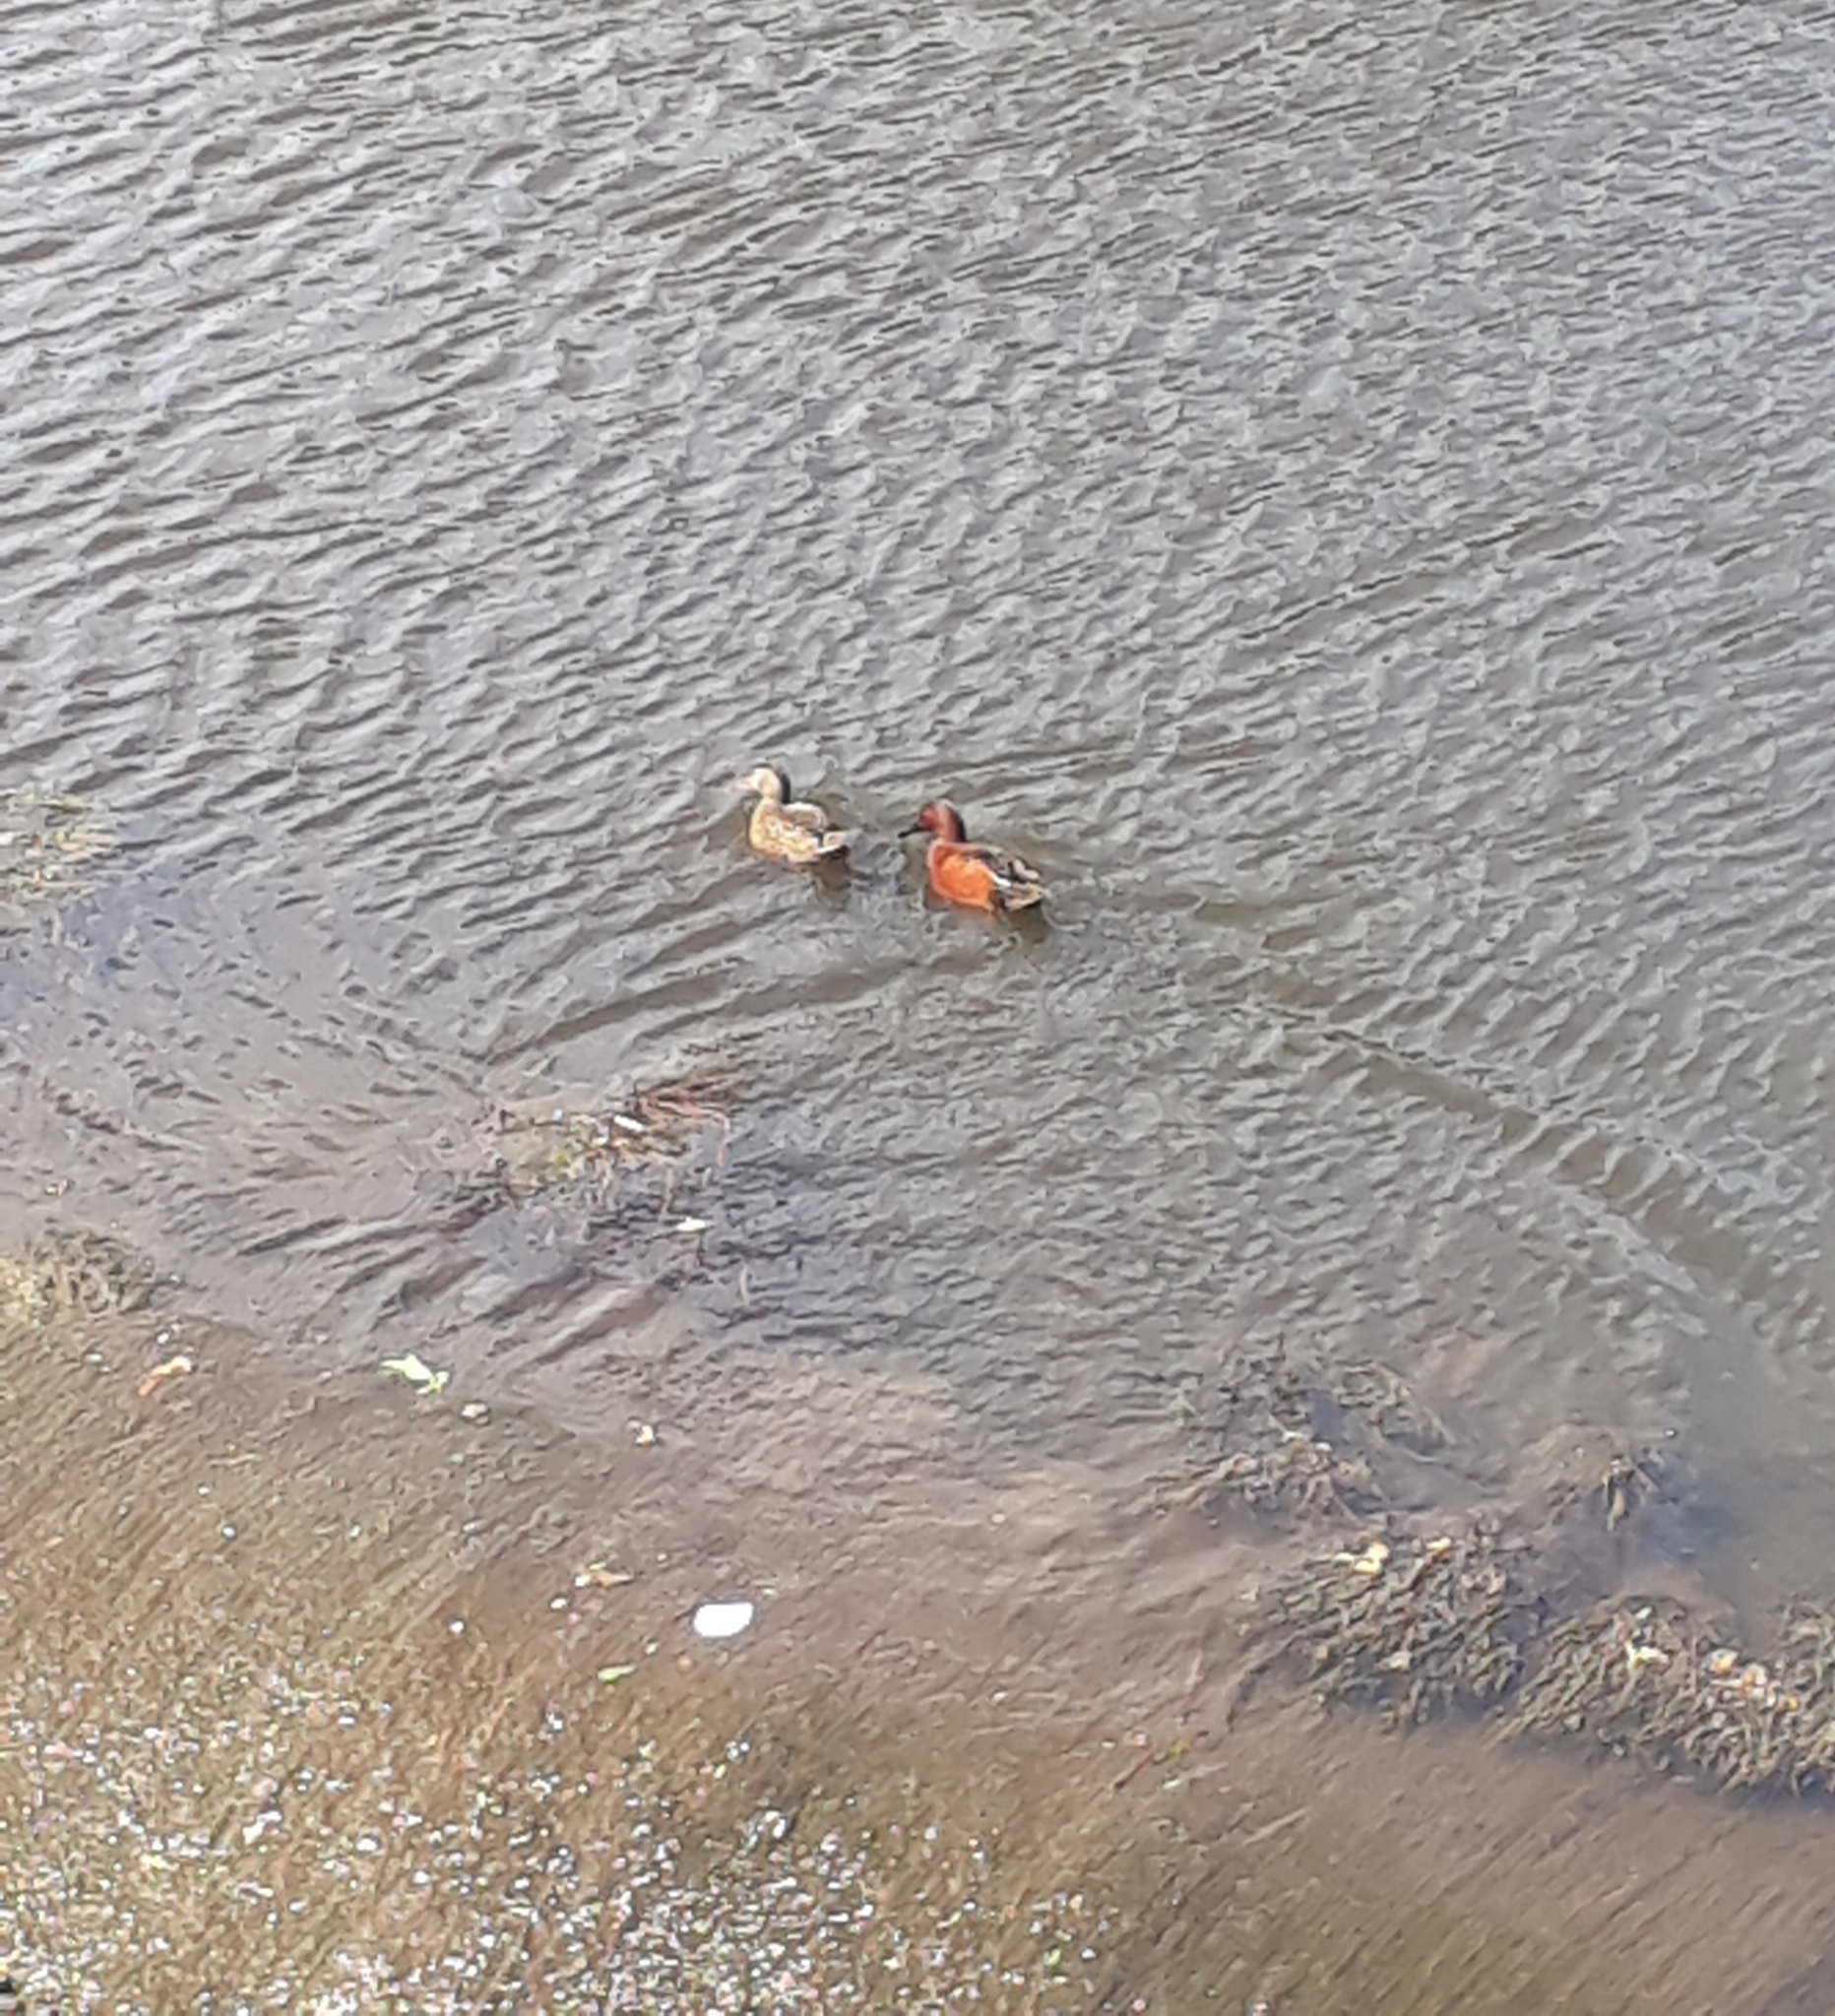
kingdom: Animalia
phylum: Chordata
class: Aves
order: Anseriformes
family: Anatidae
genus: Spatula
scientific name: Spatula cyanoptera
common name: Cinnamon teal
